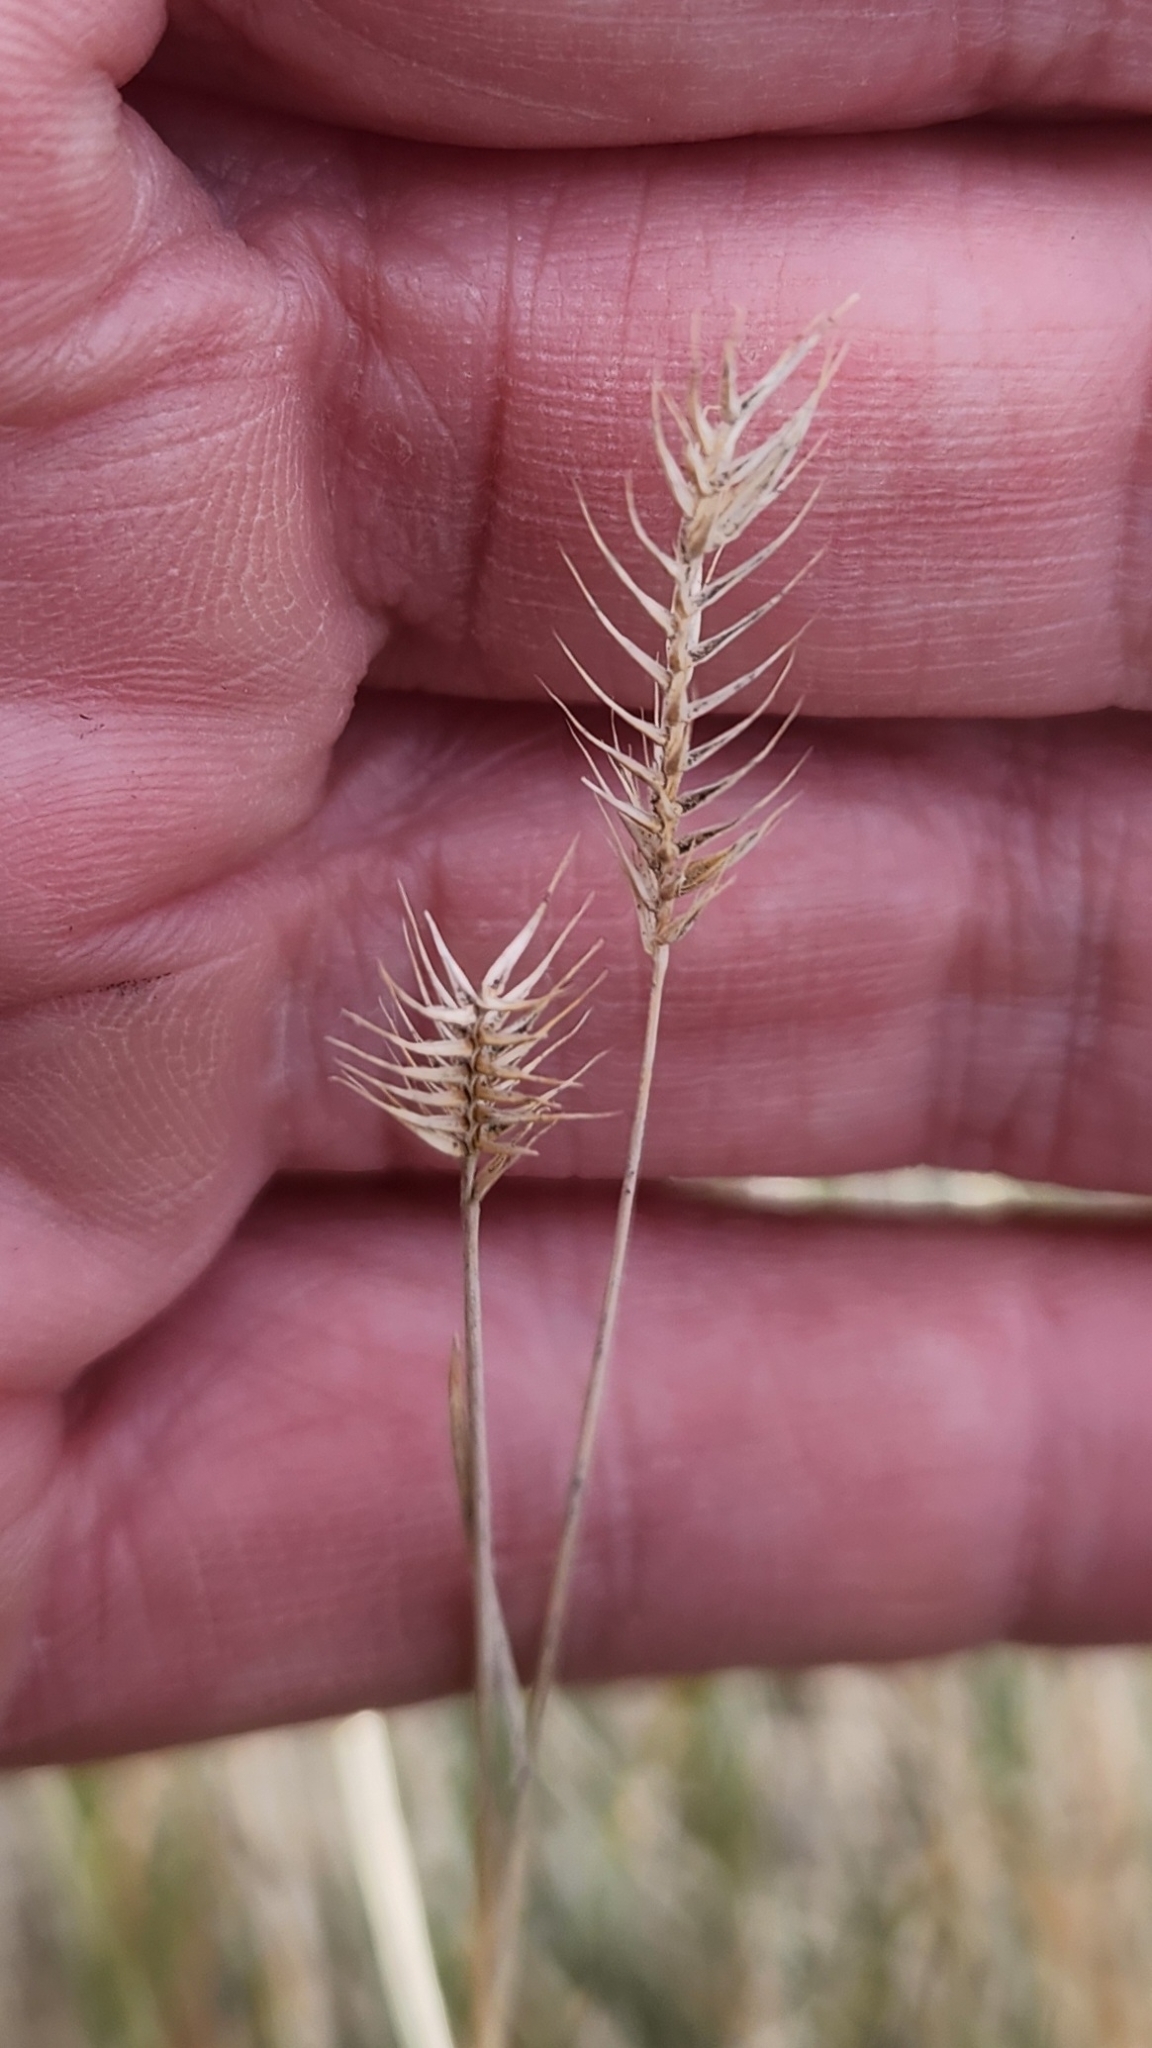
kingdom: Plantae
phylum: Tracheophyta
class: Liliopsida
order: Poales
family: Poaceae
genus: Agropyron
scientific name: Agropyron cristatum
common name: Crested wheatgrass
